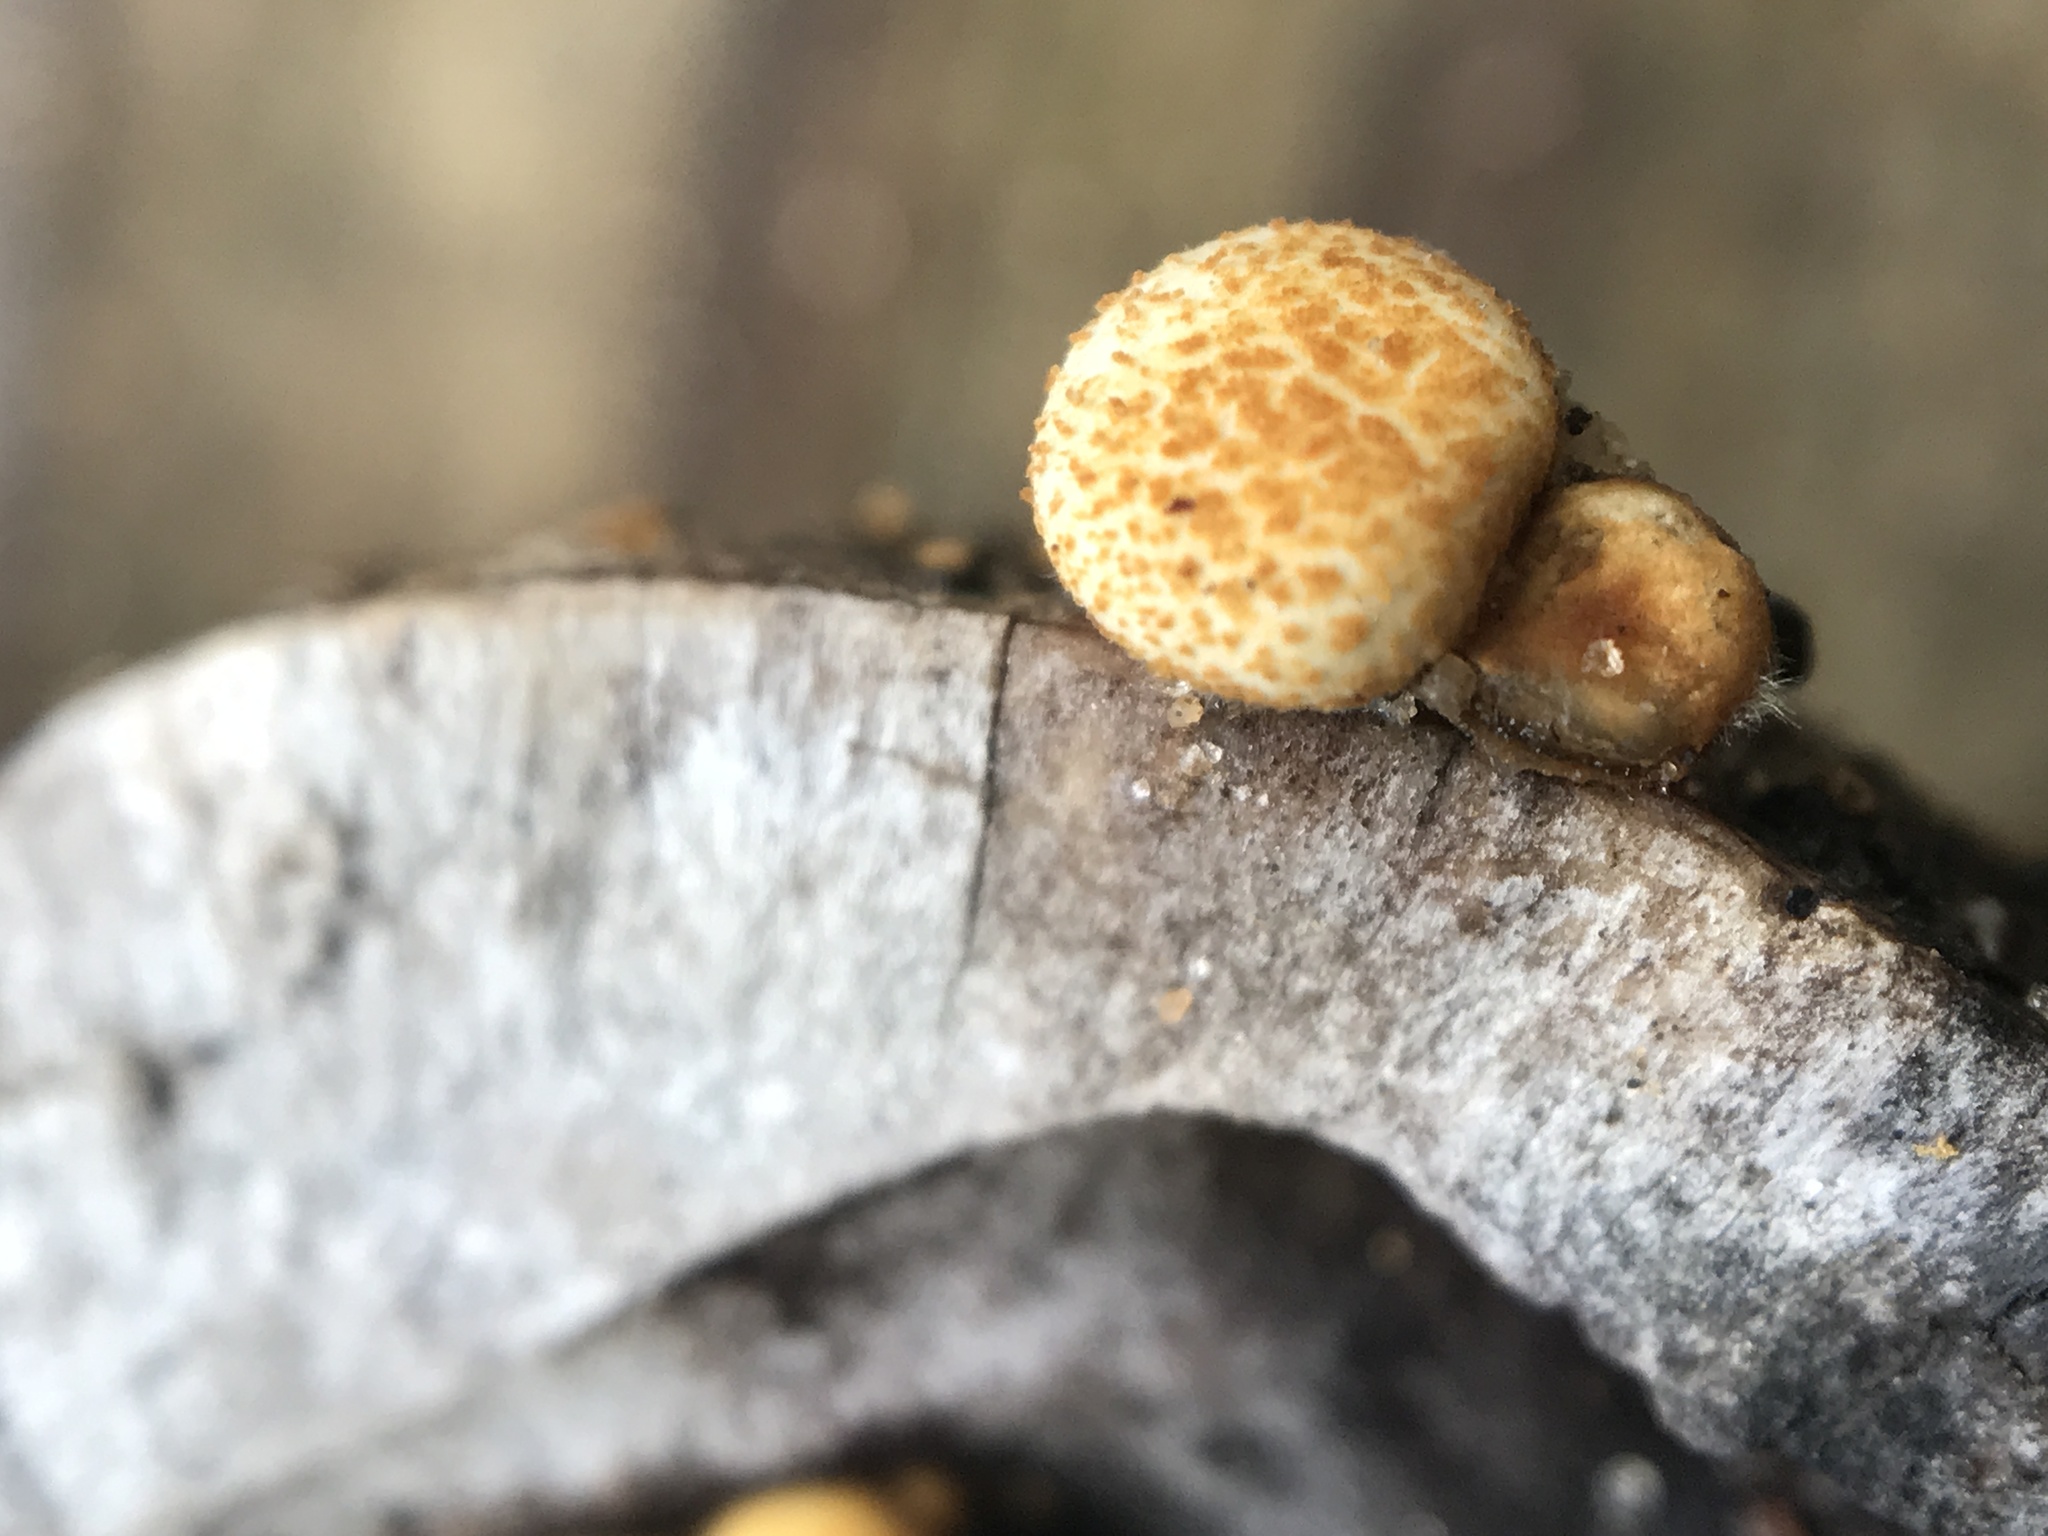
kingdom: Fungi
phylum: Basidiomycota
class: Agaricomycetes
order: Agaricales
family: Nidulariaceae
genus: Crucibulum
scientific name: Crucibulum laeve
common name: Common bird's nest
